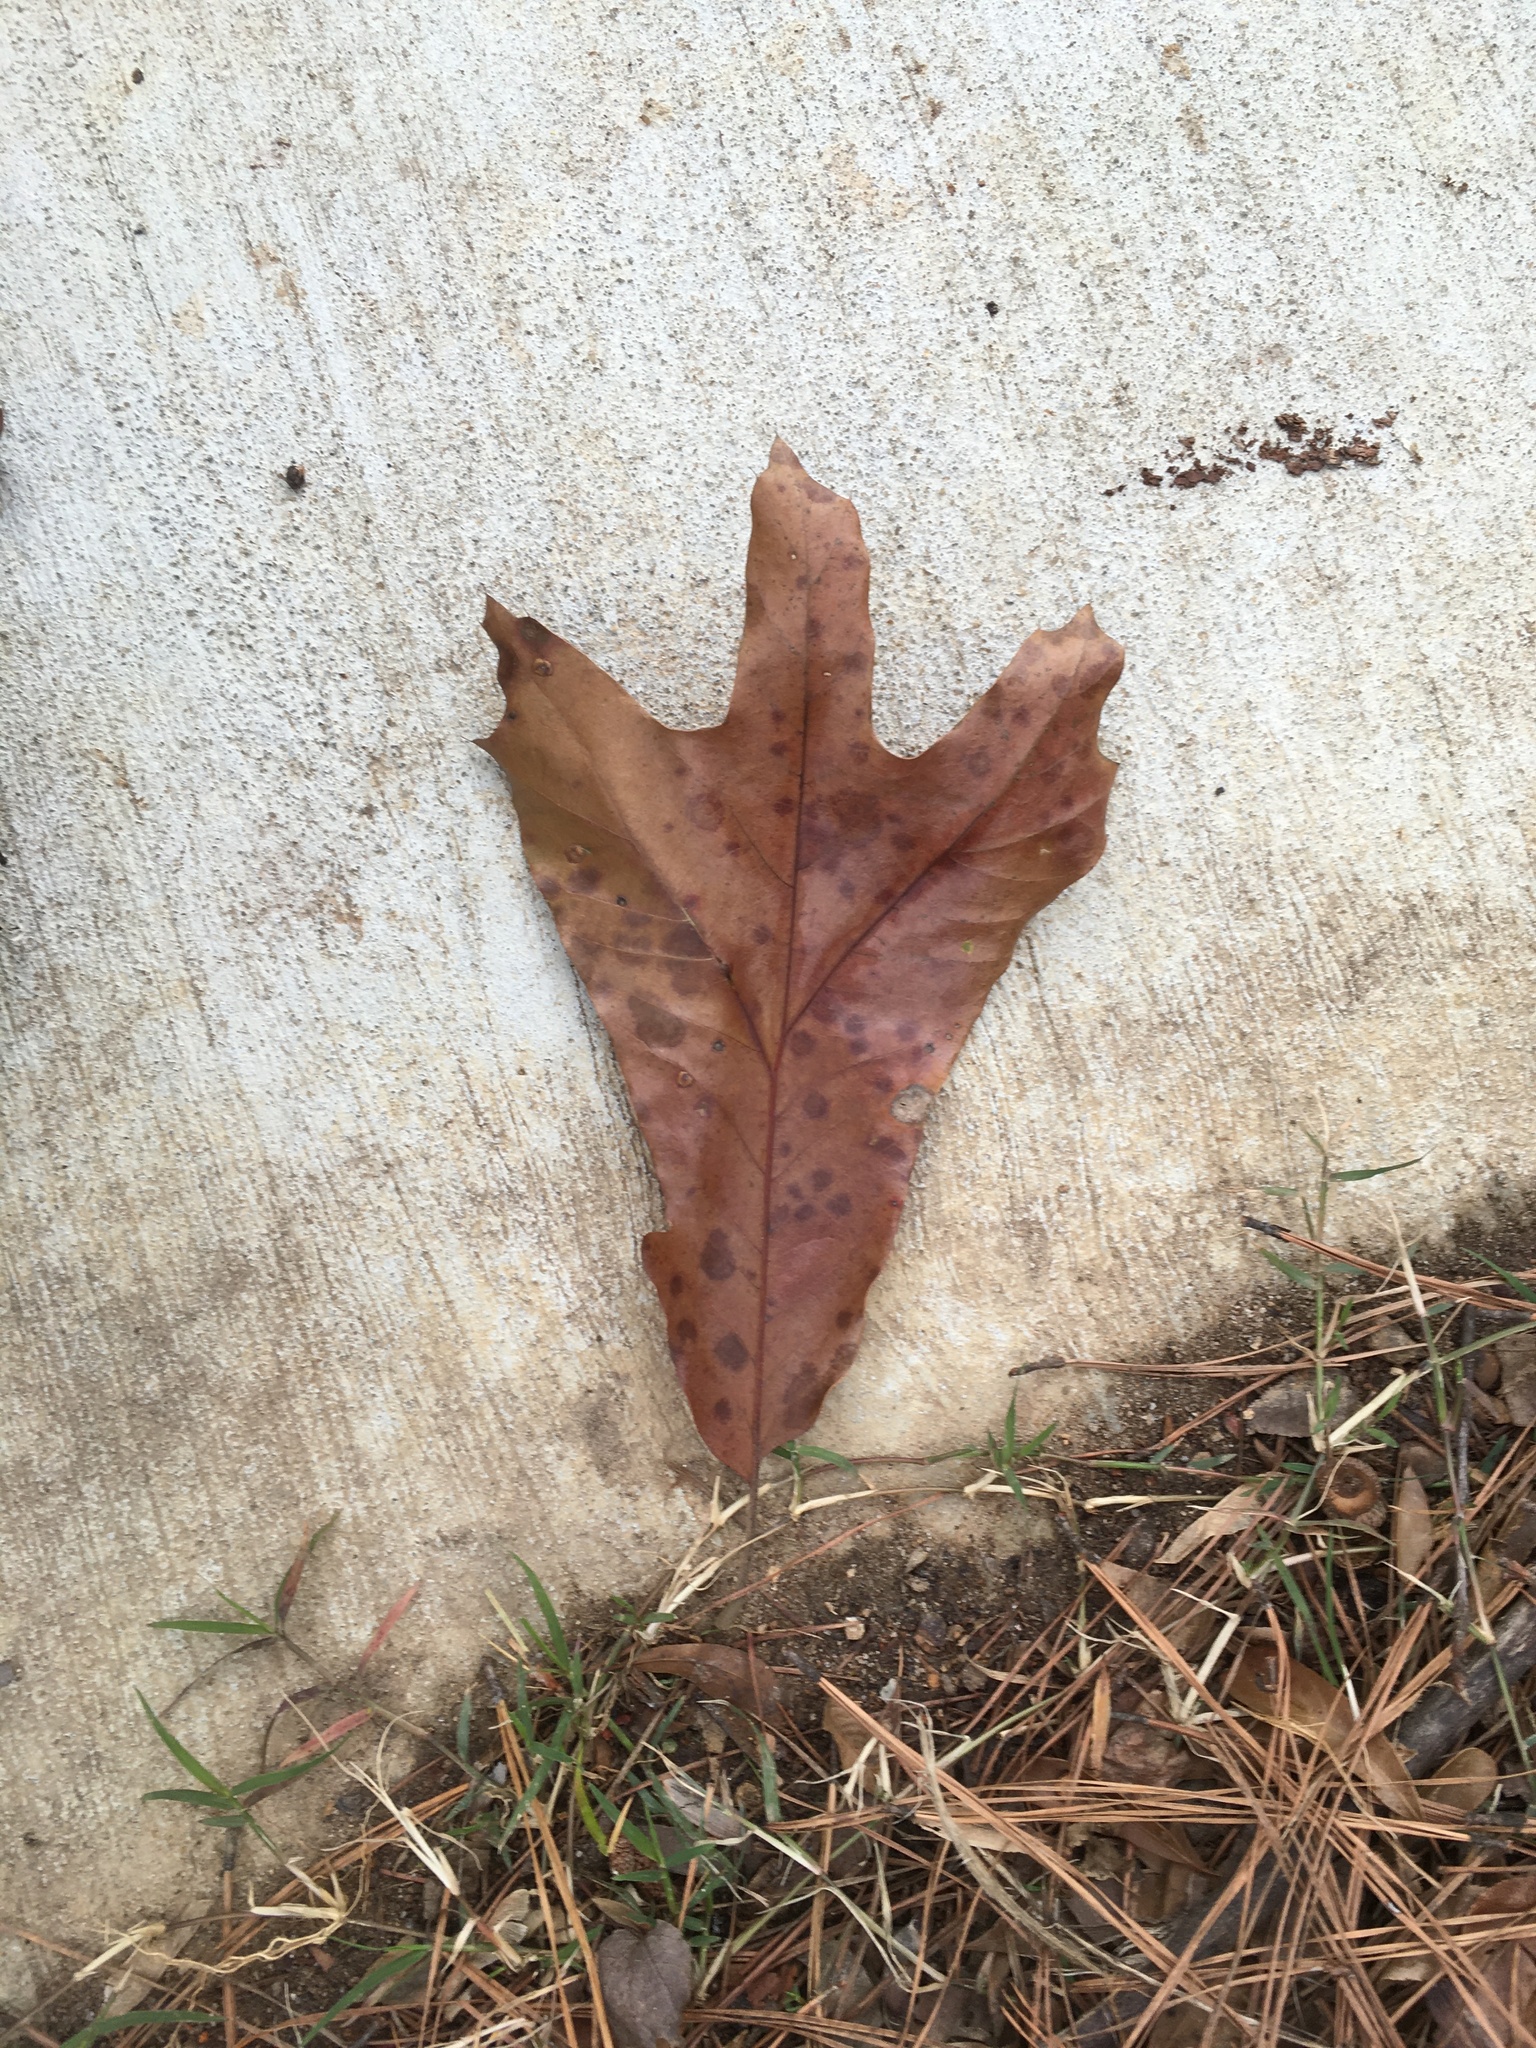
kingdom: Plantae
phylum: Tracheophyta
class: Magnoliopsida
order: Fagales
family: Fagaceae
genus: Quercus
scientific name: Quercus falcata
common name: Southern red oak
